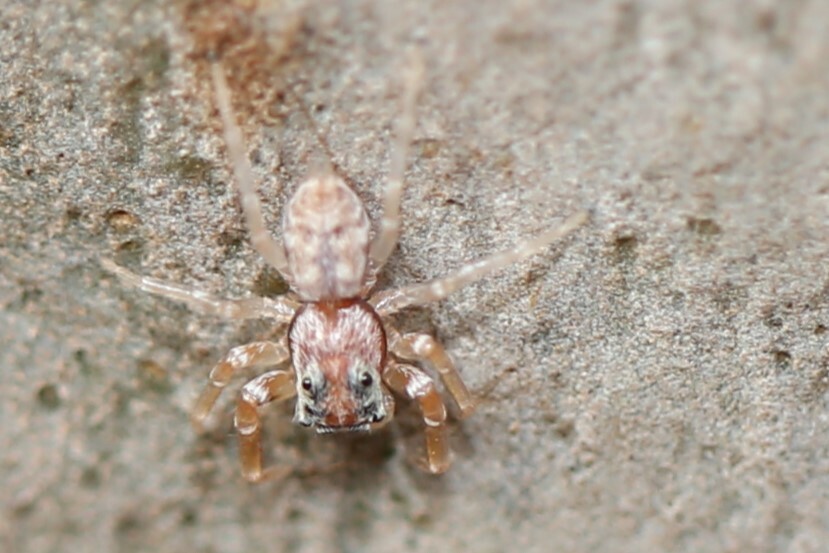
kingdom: Animalia
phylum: Arthropoda
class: Arachnida
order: Araneae
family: Salticidae
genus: Arasia
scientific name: Arasia mollicoma
